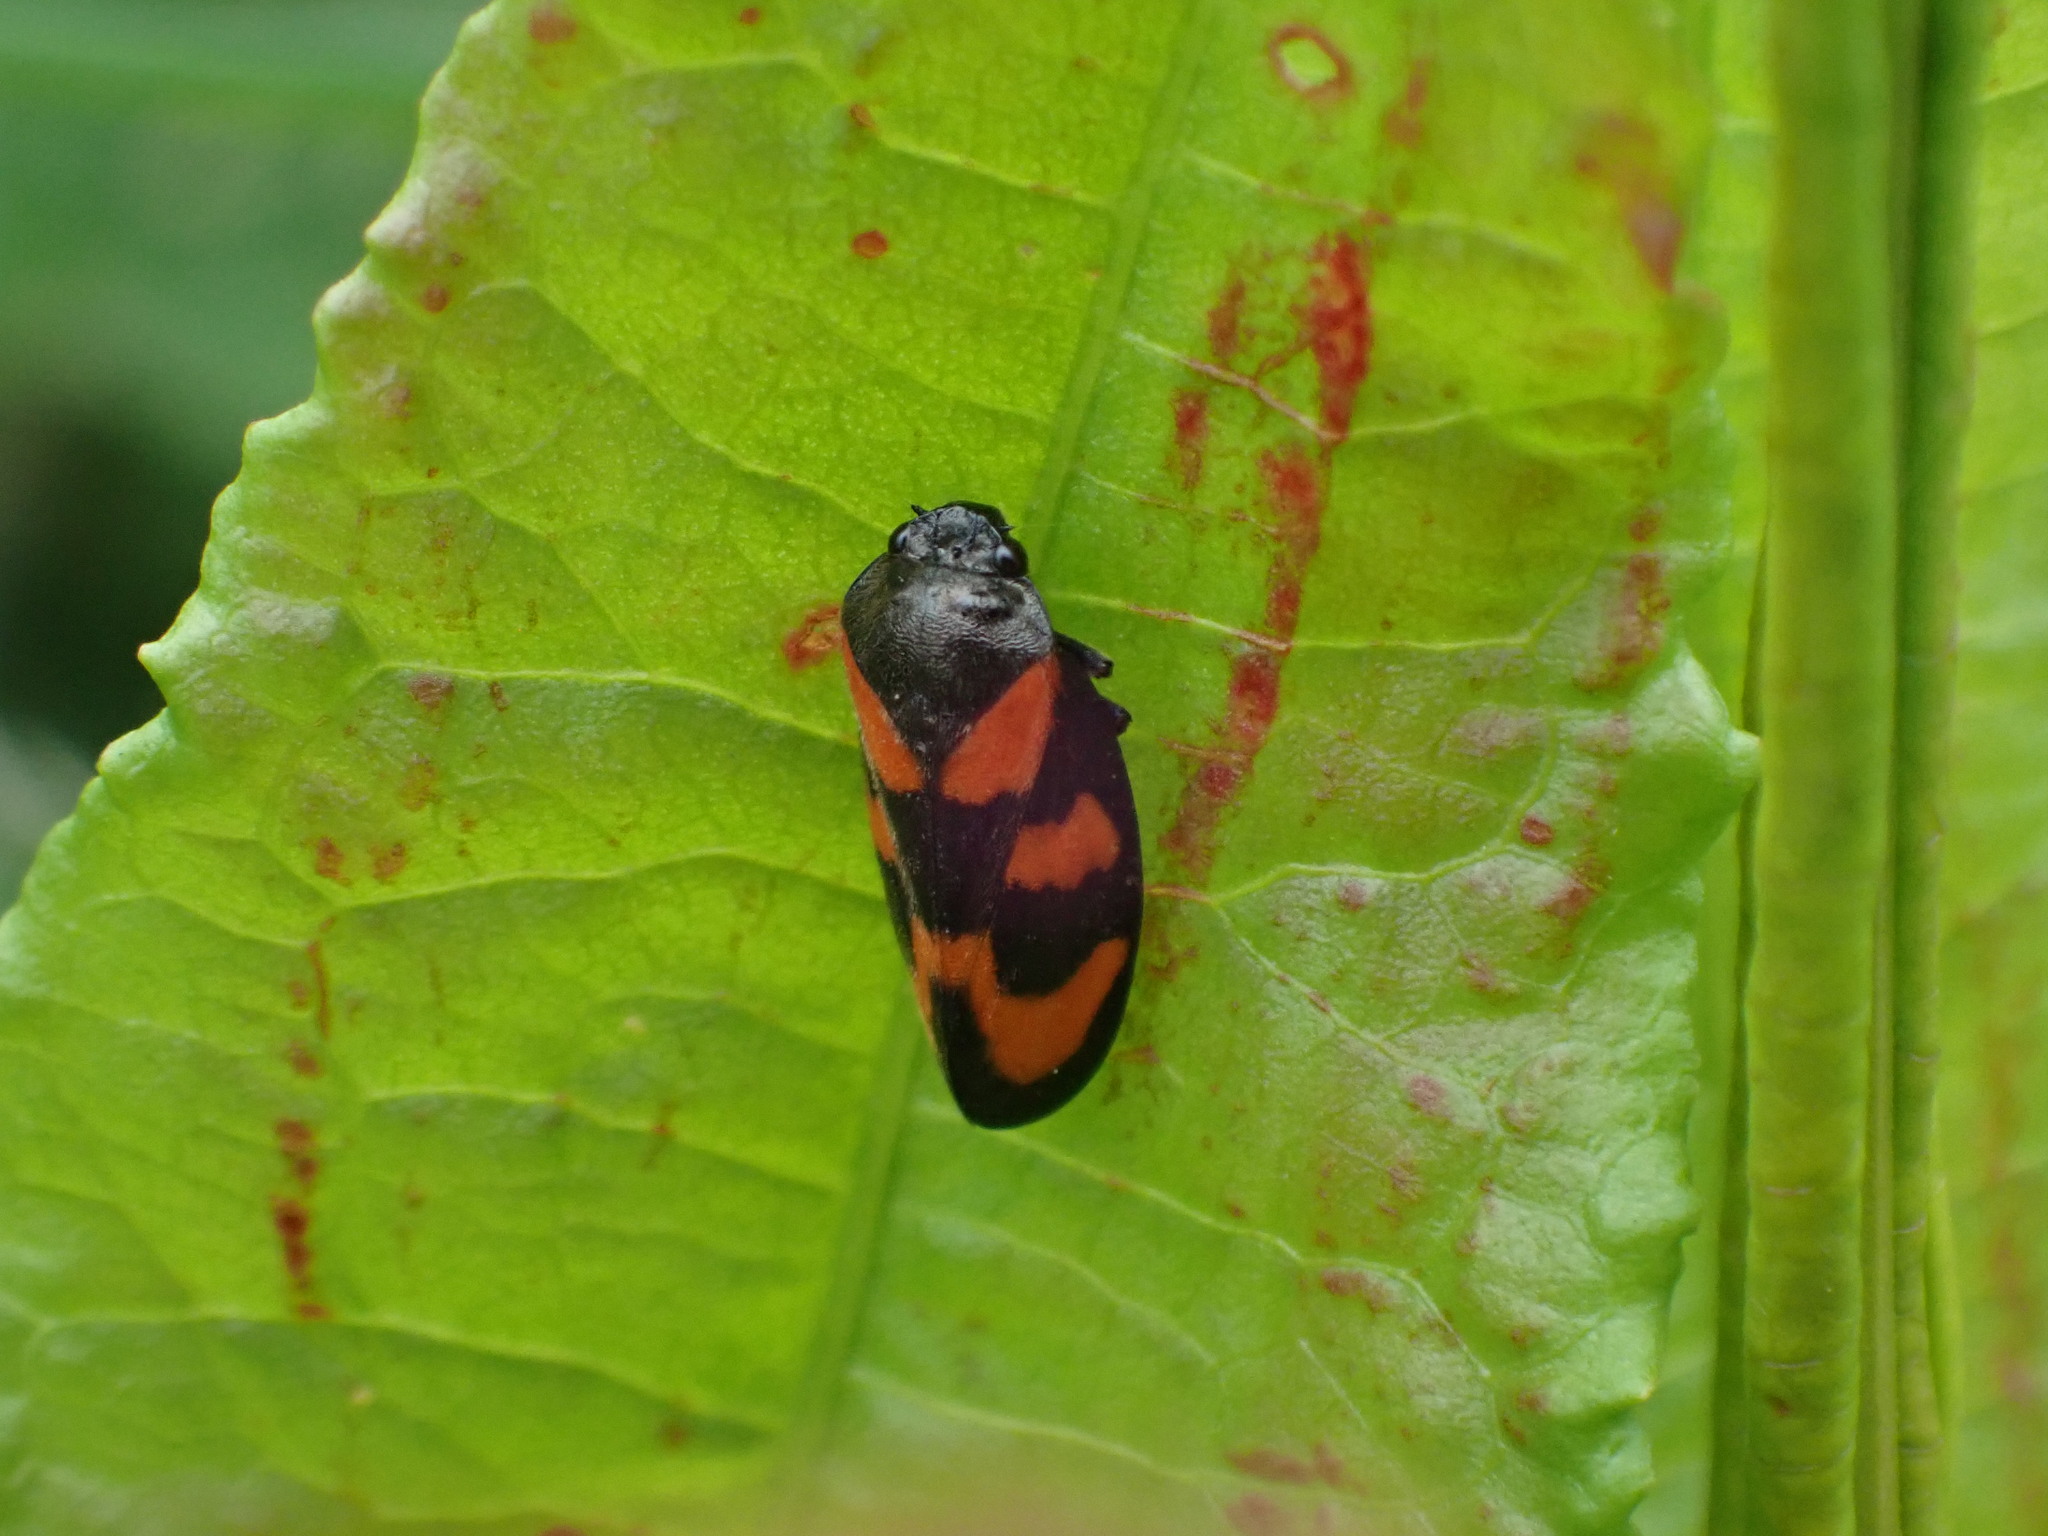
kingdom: Animalia
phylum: Arthropoda
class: Insecta
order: Hemiptera
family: Cercopidae
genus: Cercopis
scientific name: Cercopis vulnerata
